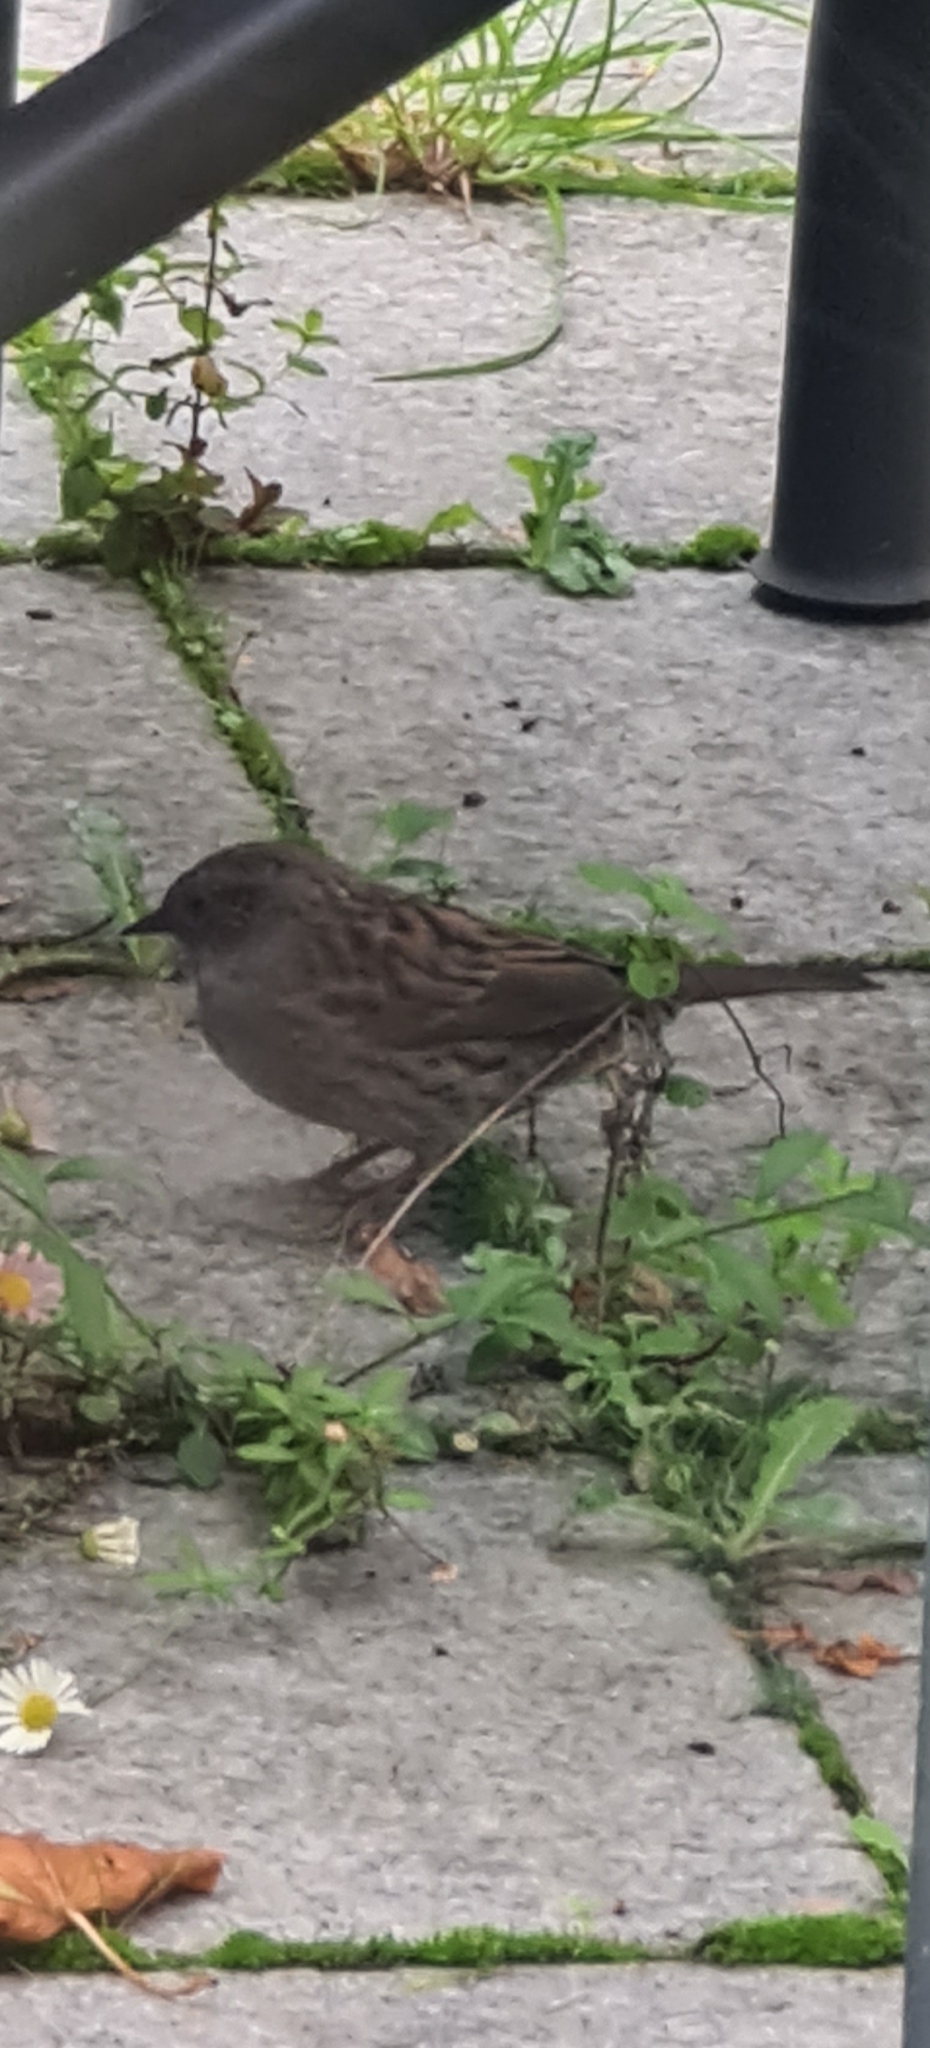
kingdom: Animalia
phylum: Chordata
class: Aves
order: Passeriformes
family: Prunellidae
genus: Prunella
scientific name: Prunella modularis
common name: Dunnock
